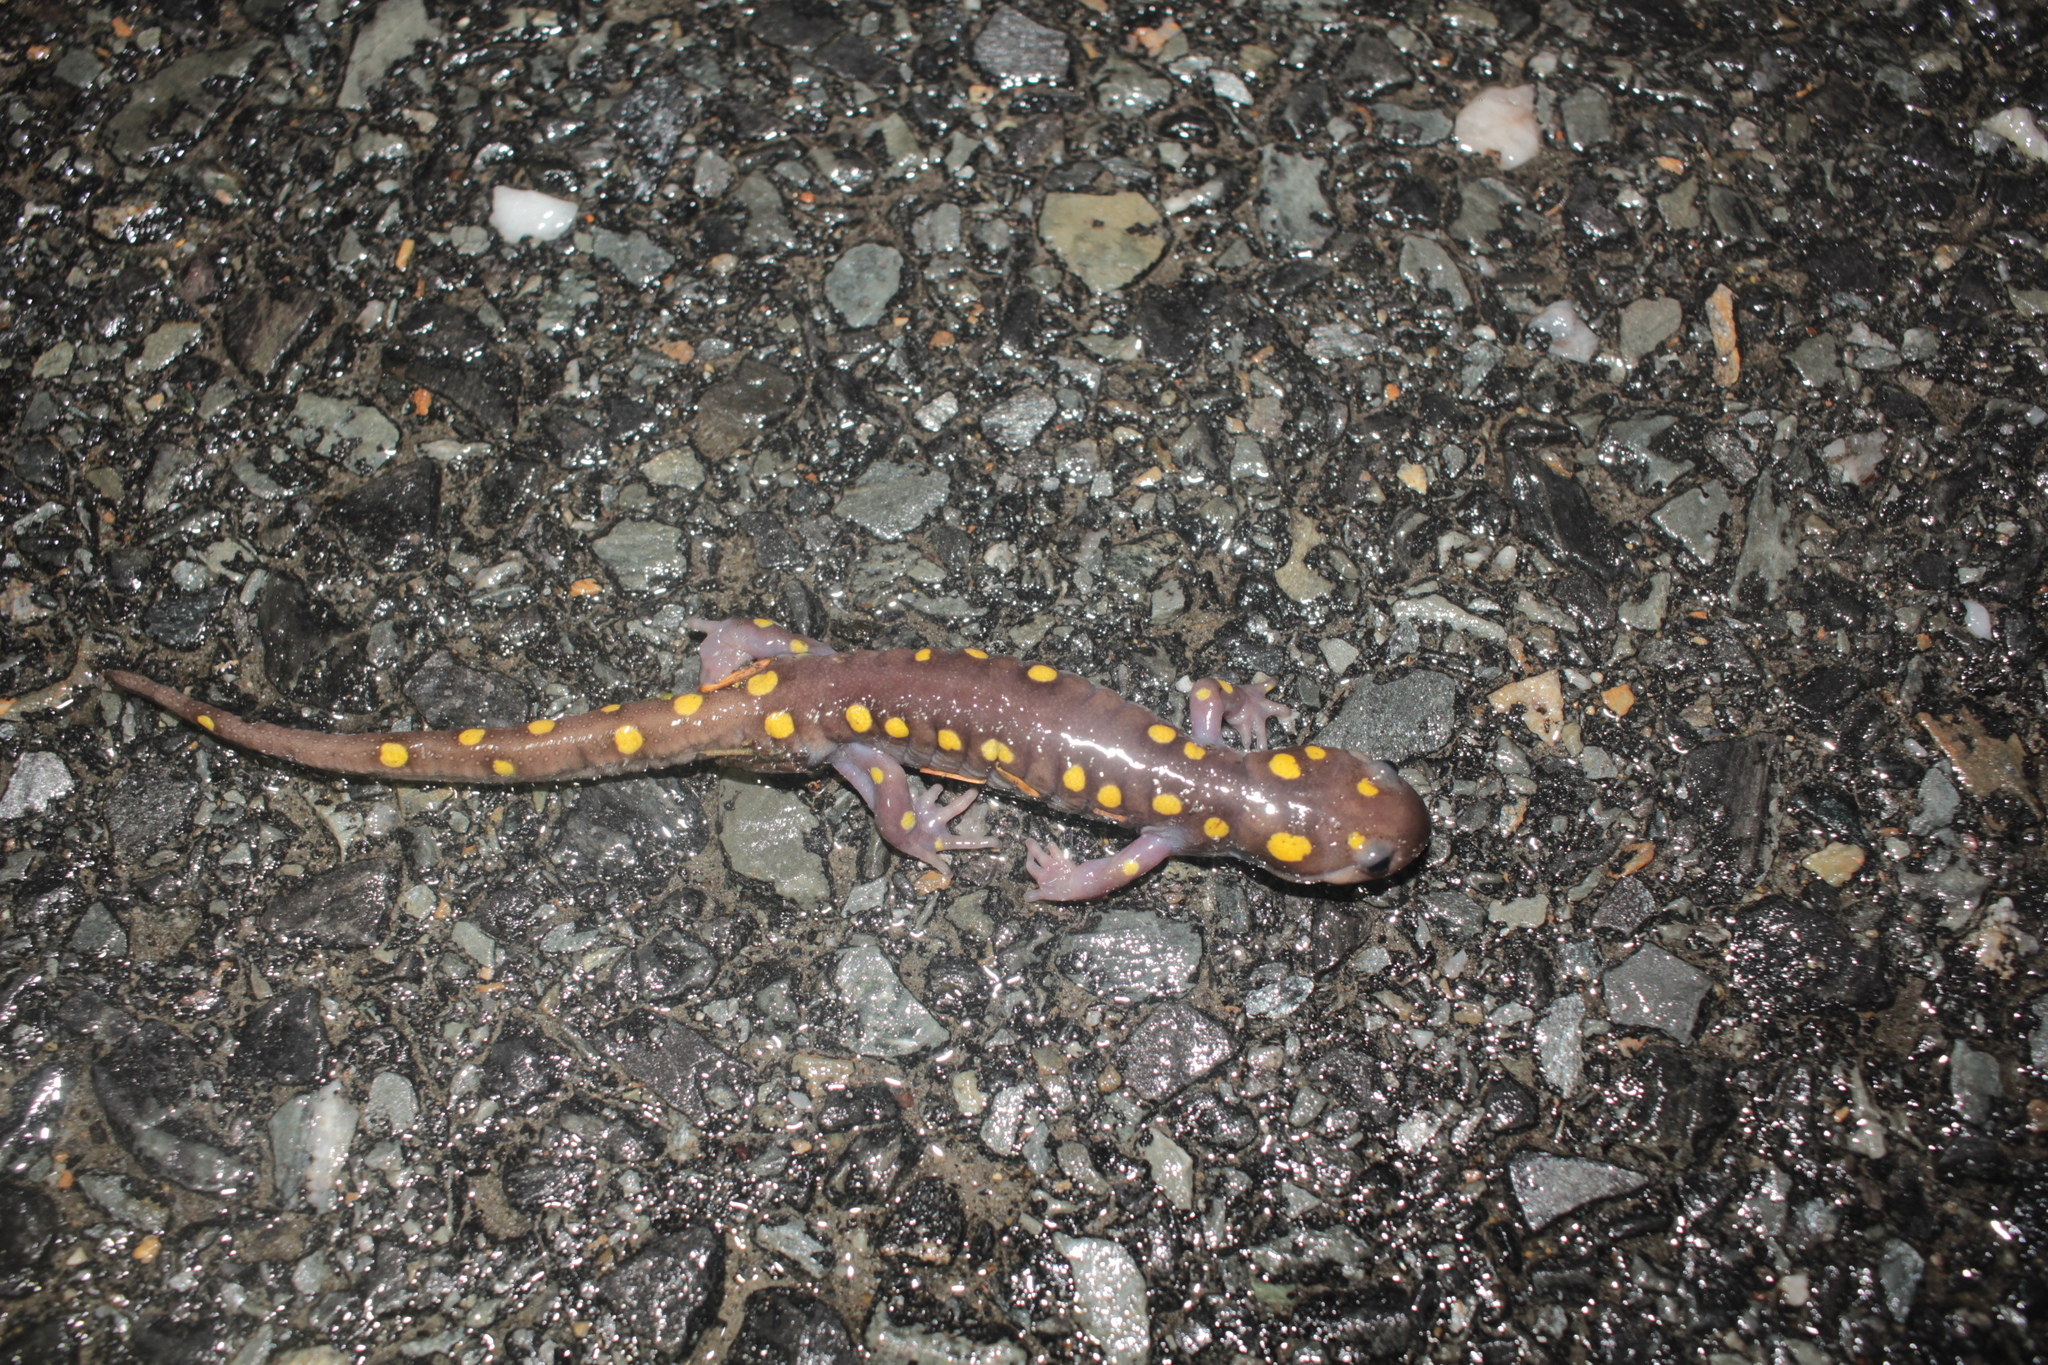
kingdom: Animalia
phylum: Chordata
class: Amphibia
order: Caudata
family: Ambystomatidae
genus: Ambystoma
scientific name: Ambystoma maculatum
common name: Spotted salamander
